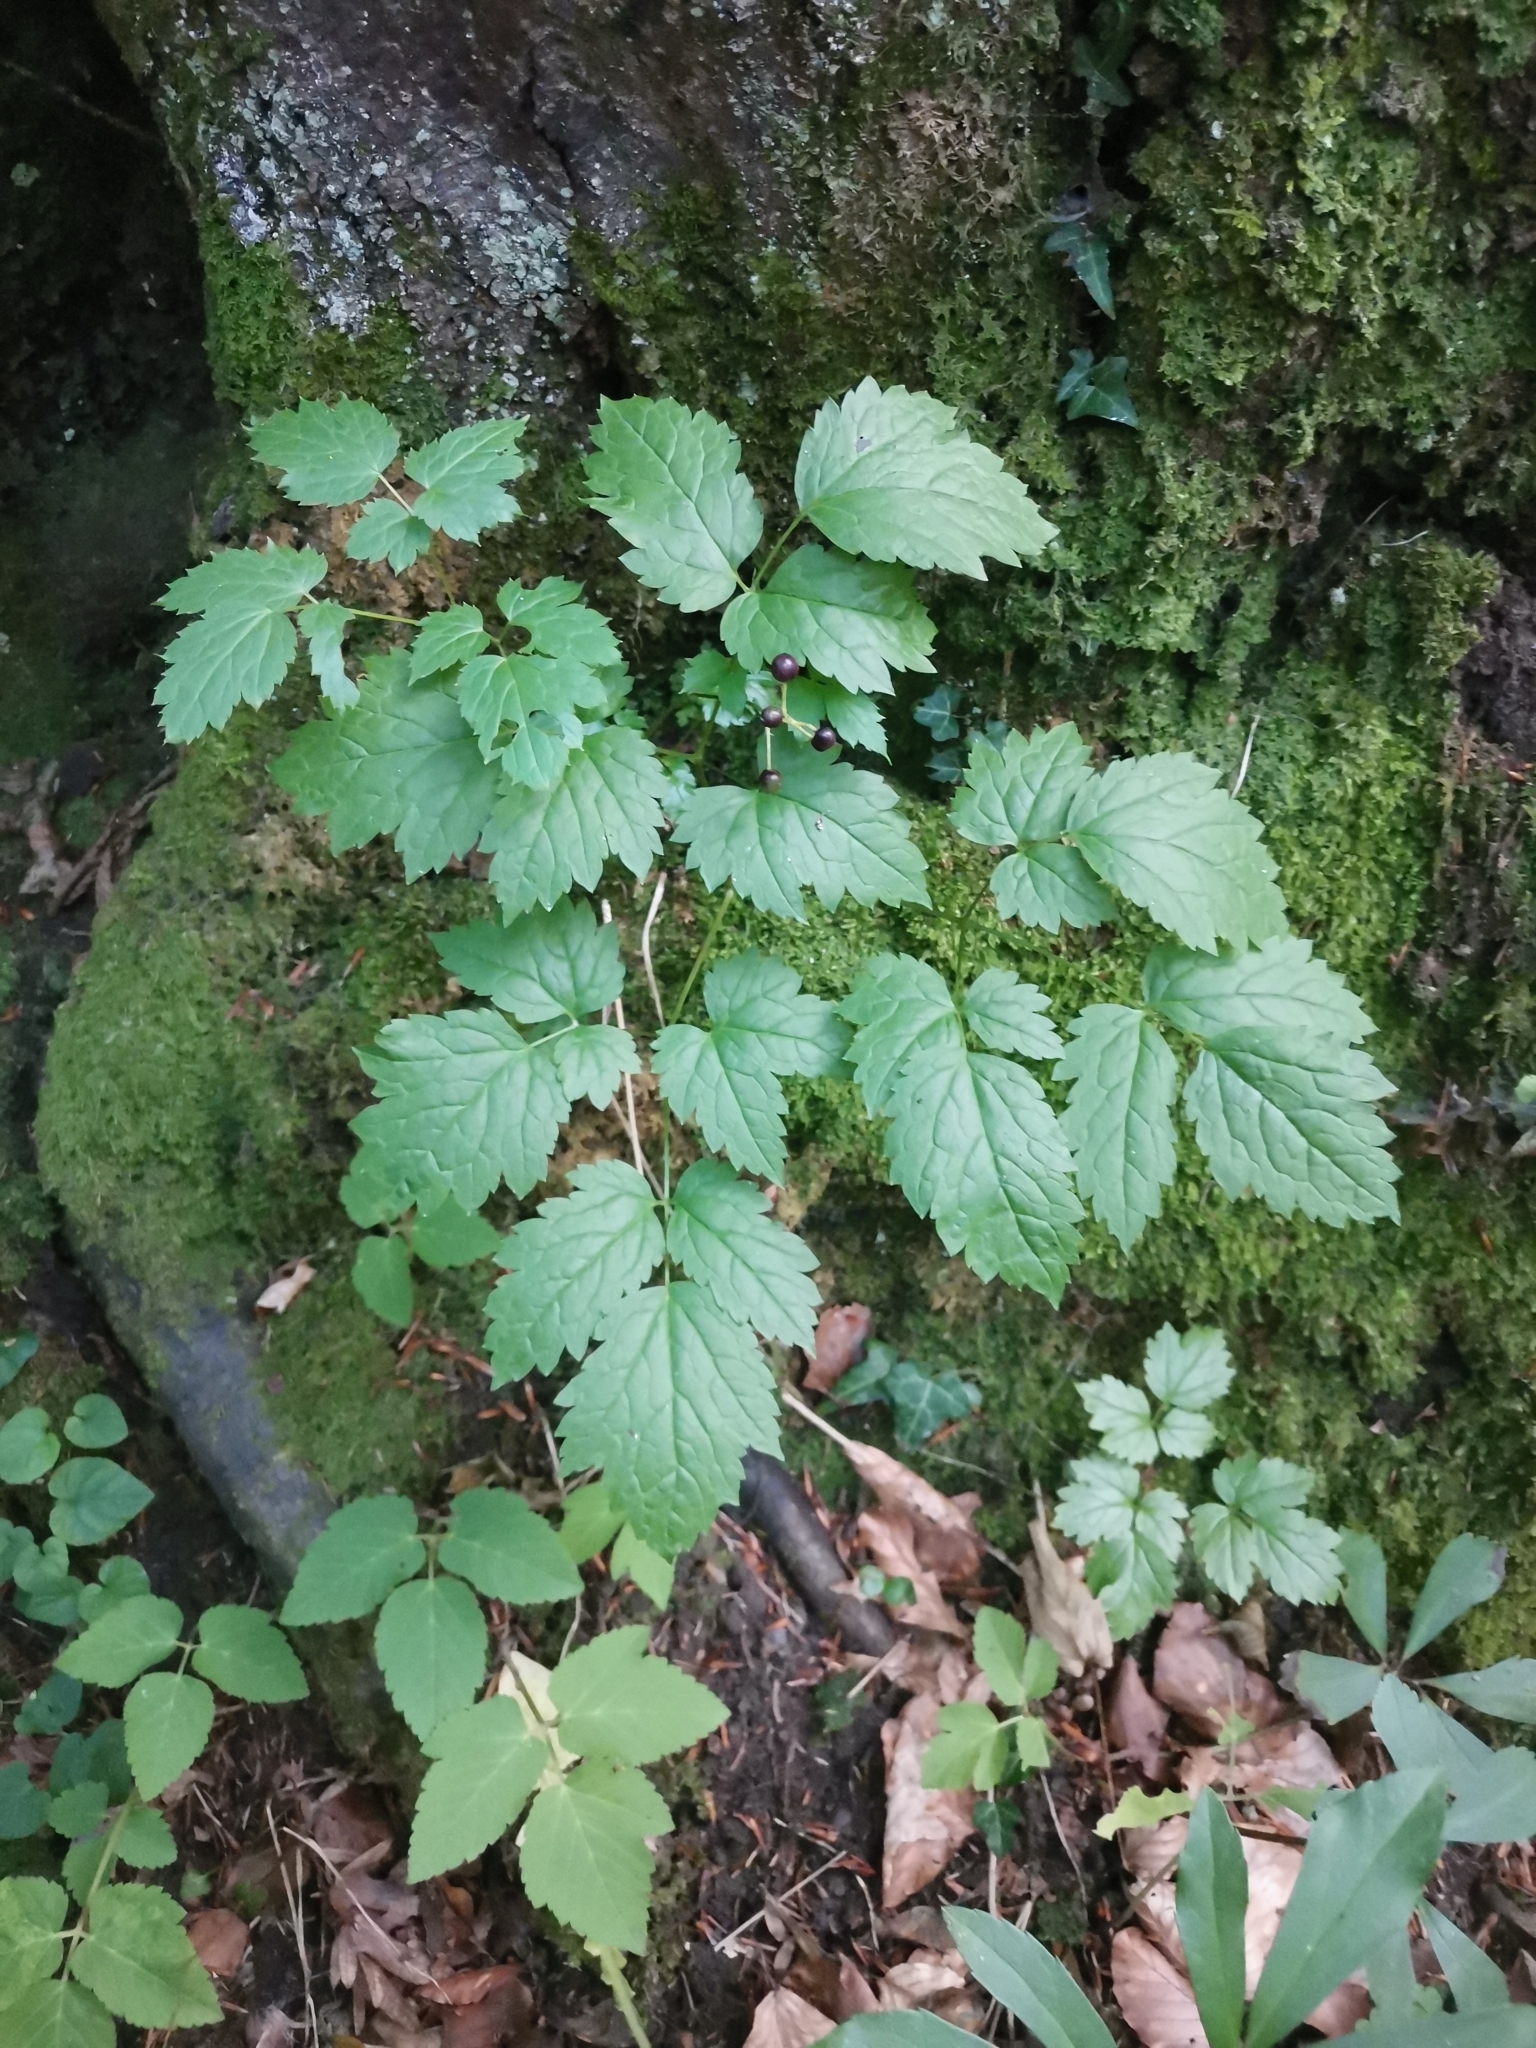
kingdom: Plantae
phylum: Tracheophyta
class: Magnoliopsida
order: Ranunculales
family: Ranunculaceae
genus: Actaea
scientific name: Actaea spicata
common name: Baneberry
